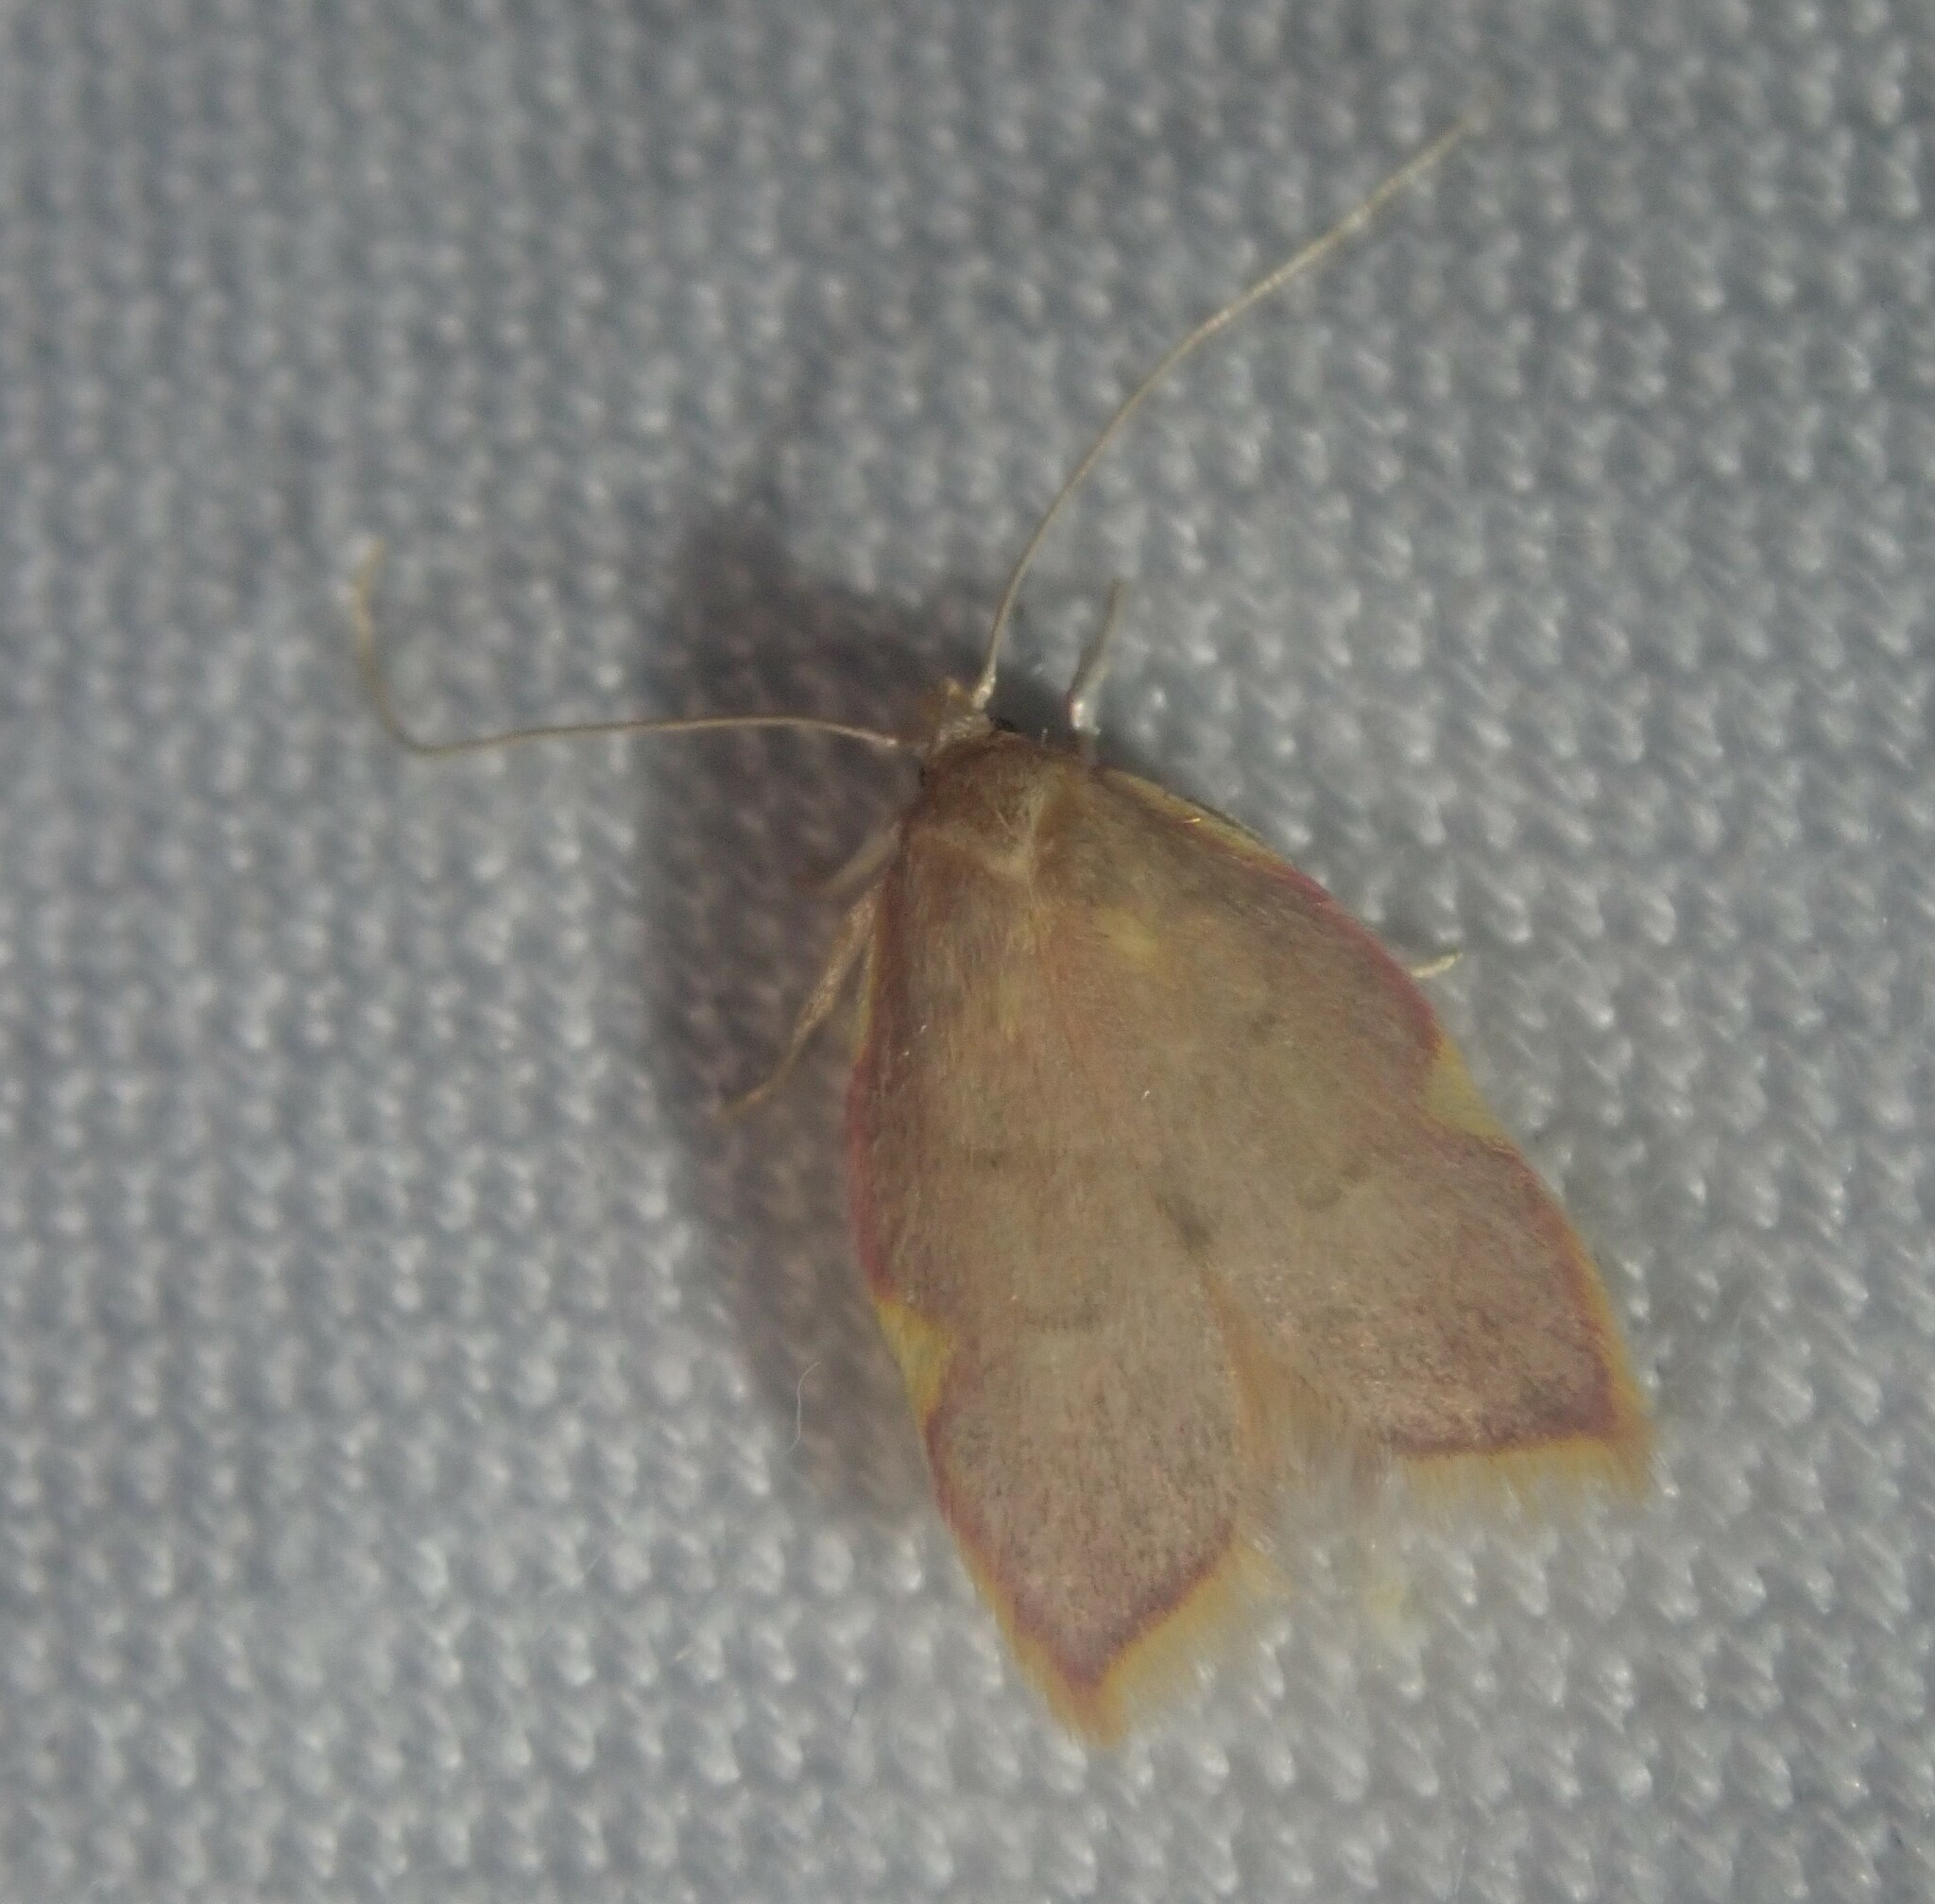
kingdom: Animalia
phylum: Arthropoda
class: Insecta
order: Lepidoptera
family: Peleopodidae
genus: Carcina
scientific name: Carcina quercana
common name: Moth
